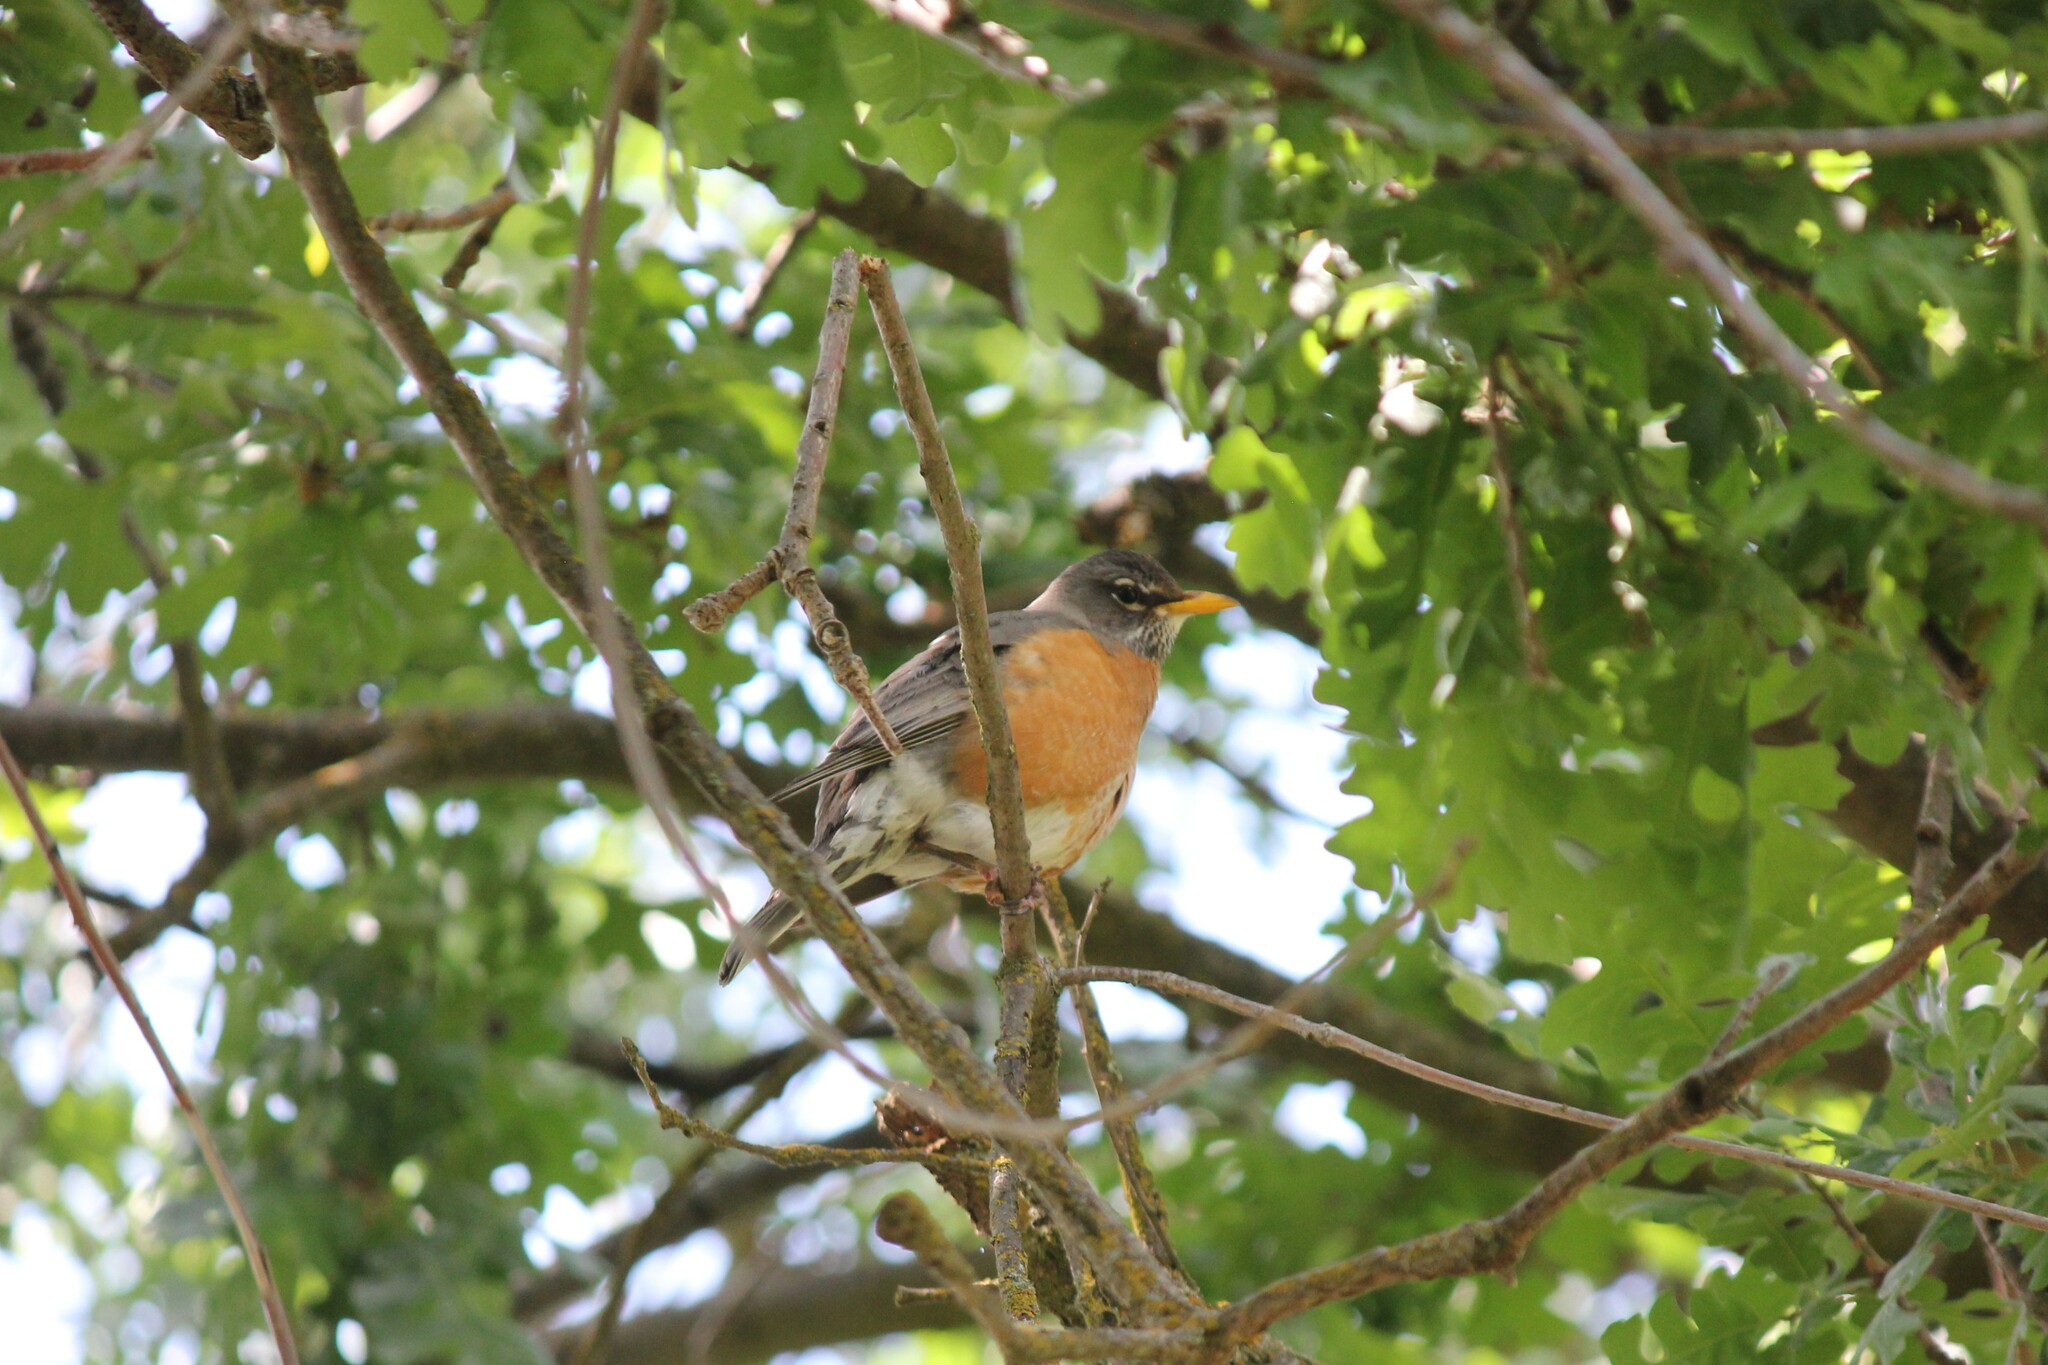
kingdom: Animalia
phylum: Chordata
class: Aves
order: Passeriformes
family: Turdidae
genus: Turdus
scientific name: Turdus migratorius
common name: American robin
